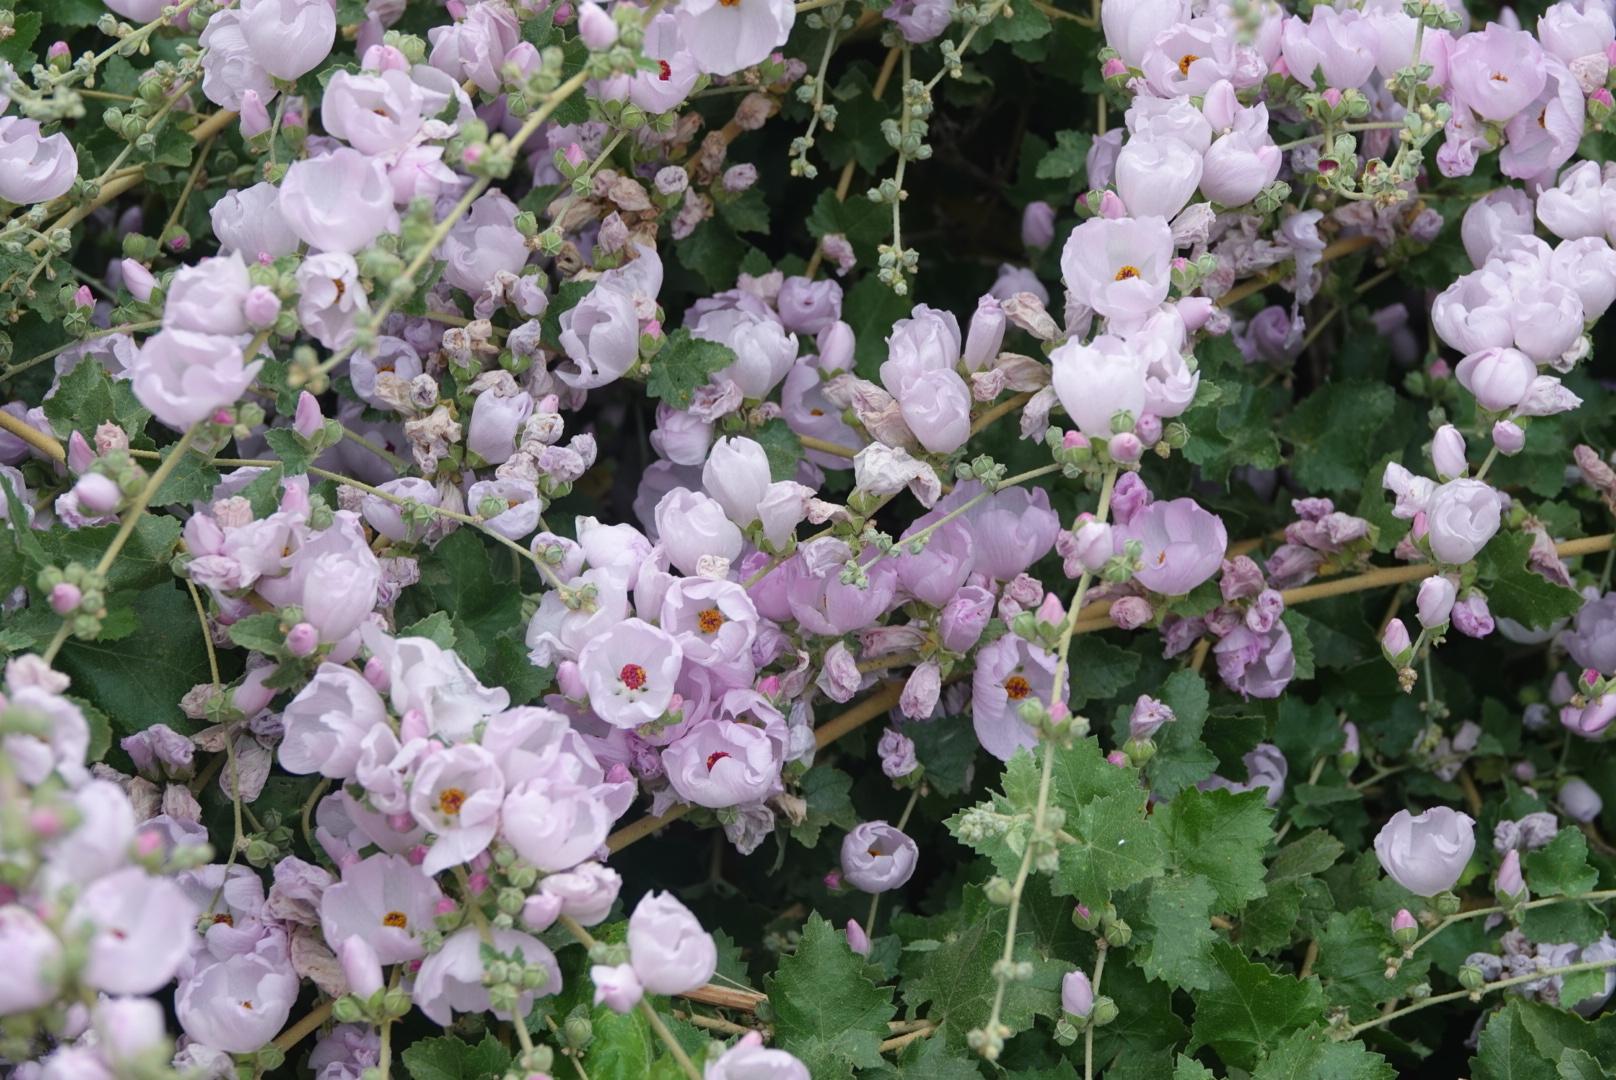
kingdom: Plantae
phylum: Tracheophyta
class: Magnoliopsida
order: Malvales
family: Malvaceae
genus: Malacothamnus
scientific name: Malacothamnus fasciculatus
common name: Sant cruz island bush-mallow
